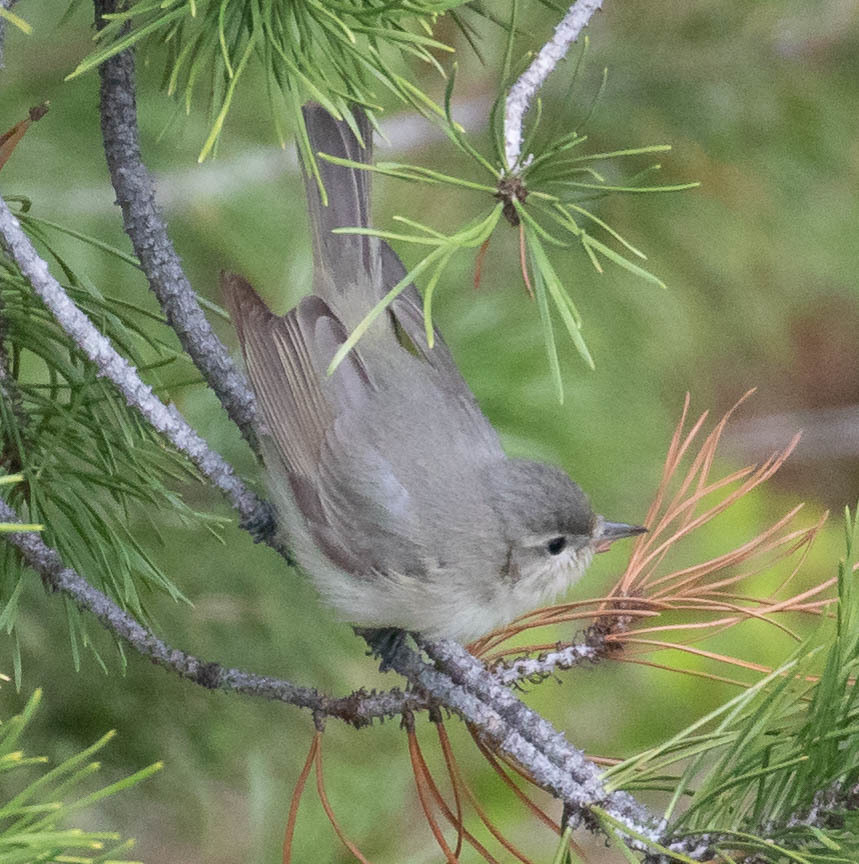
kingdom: Animalia
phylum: Chordata
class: Aves
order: Passeriformes
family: Vireonidae
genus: Vireo
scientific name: Vireo gilvus
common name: Warbling vireo
